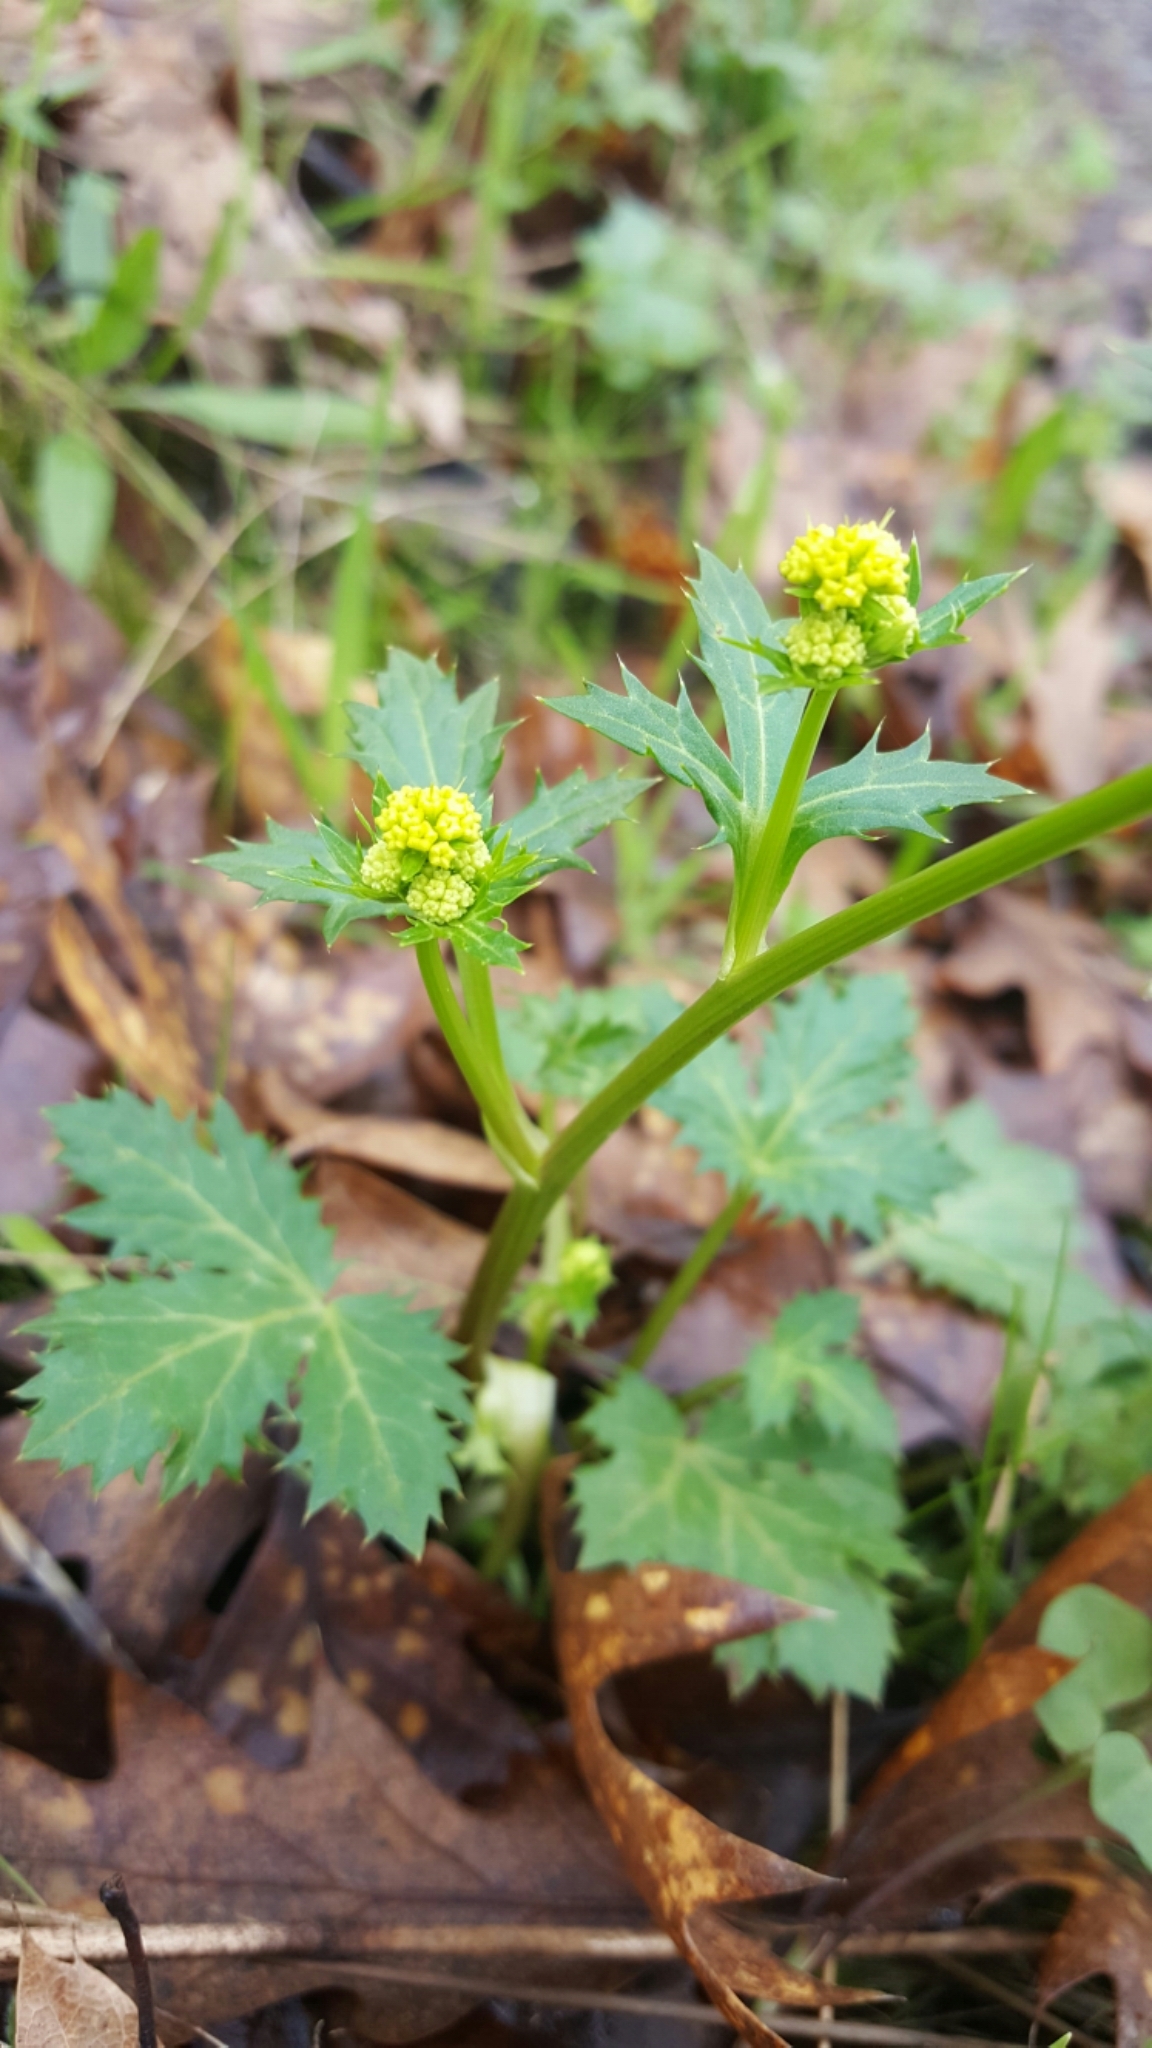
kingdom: Plantae
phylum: Tracheophyta
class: Magnoliopsida
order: Apiales
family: Apiaceae
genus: Sanicula
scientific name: Sanicula laciniata
